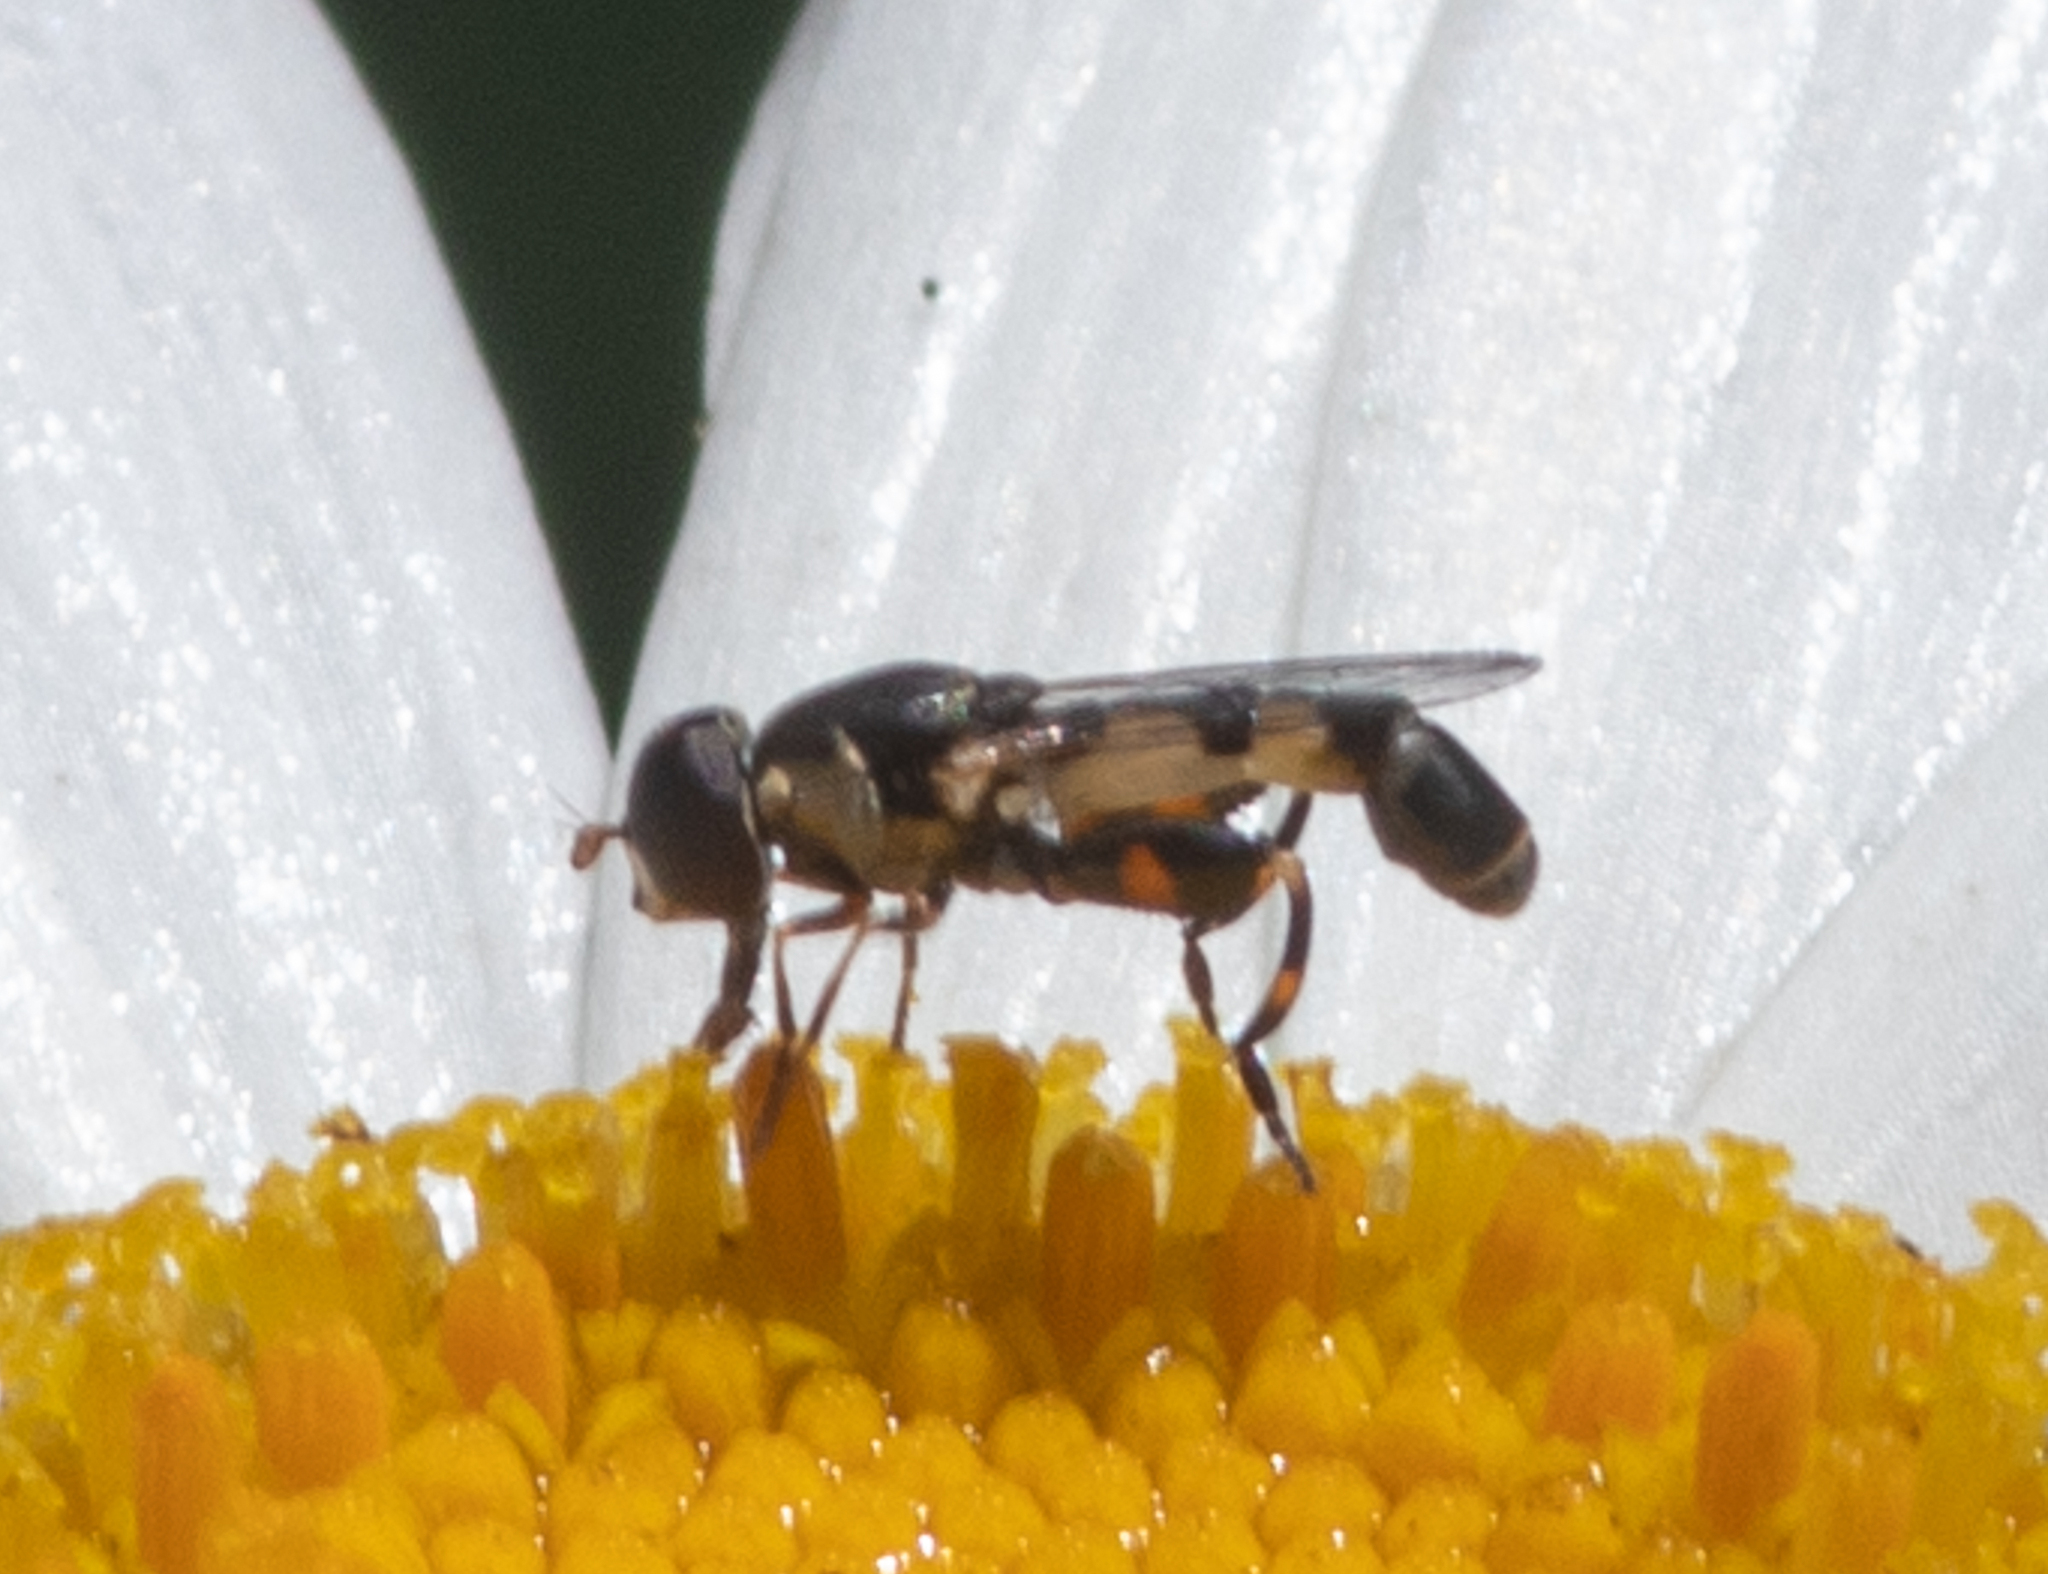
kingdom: Animalia
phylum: Arthropoda
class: Insecta
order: Diptera
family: Syrphidae
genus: Syritta
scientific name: Syritta pipiens
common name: Hover fly
